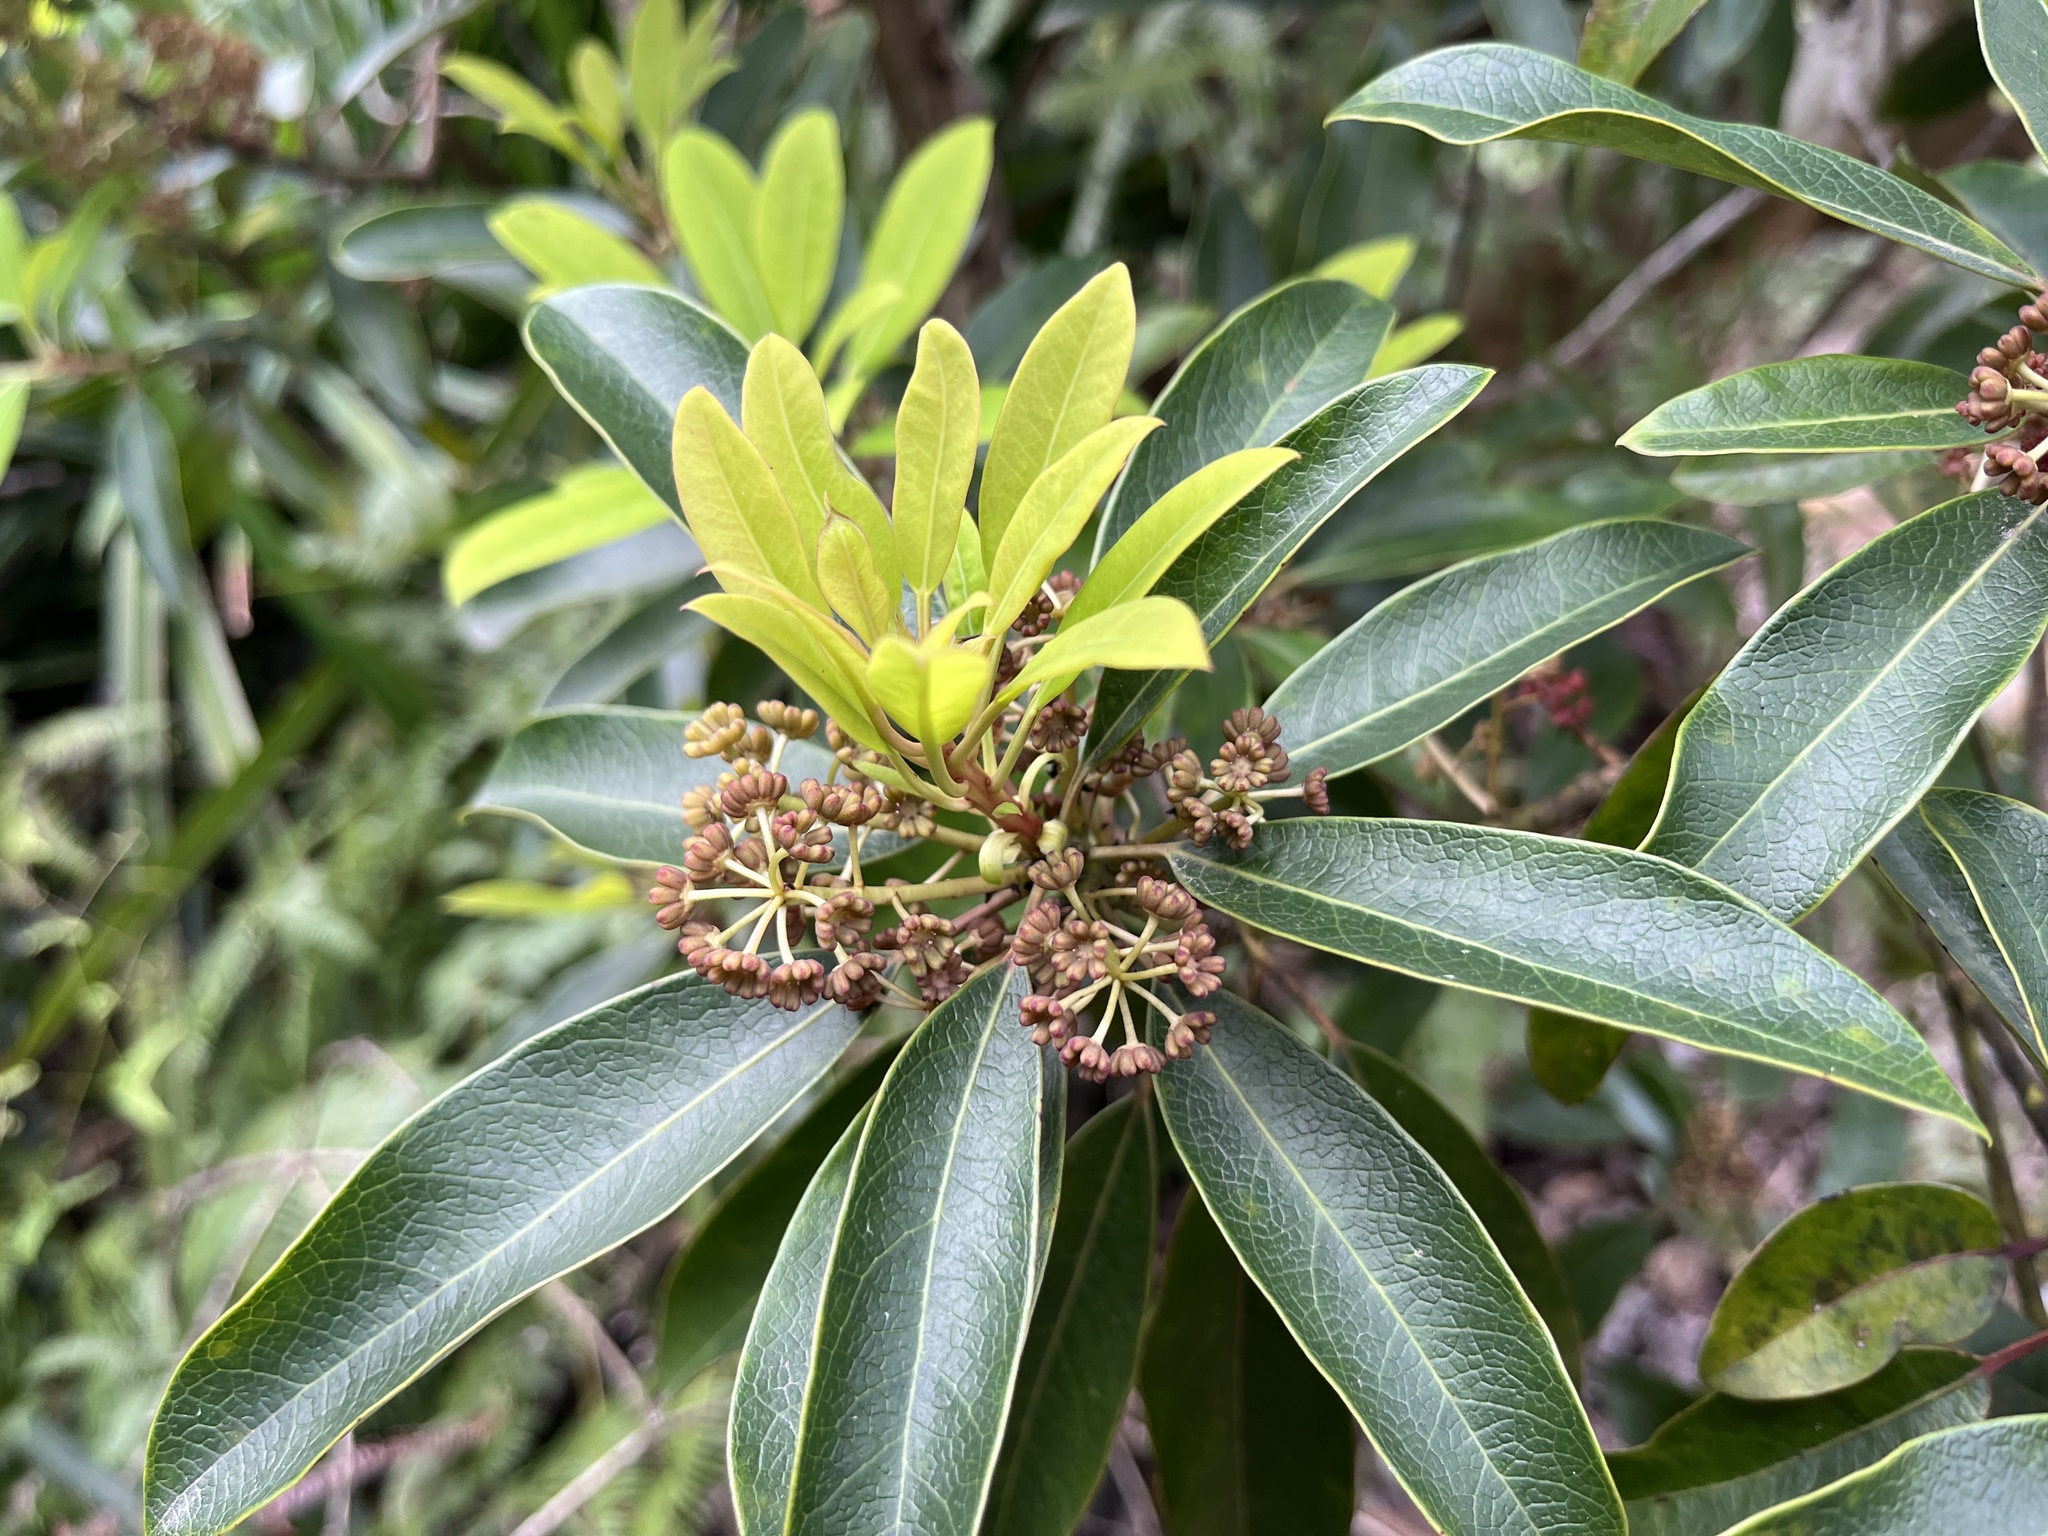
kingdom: Plantae
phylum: Tracheophyta
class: Magnoliopsida
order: Saxifragales
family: Daphniphyllaceae
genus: Daphniphyllum
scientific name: Daphniphyllum pentandrum
